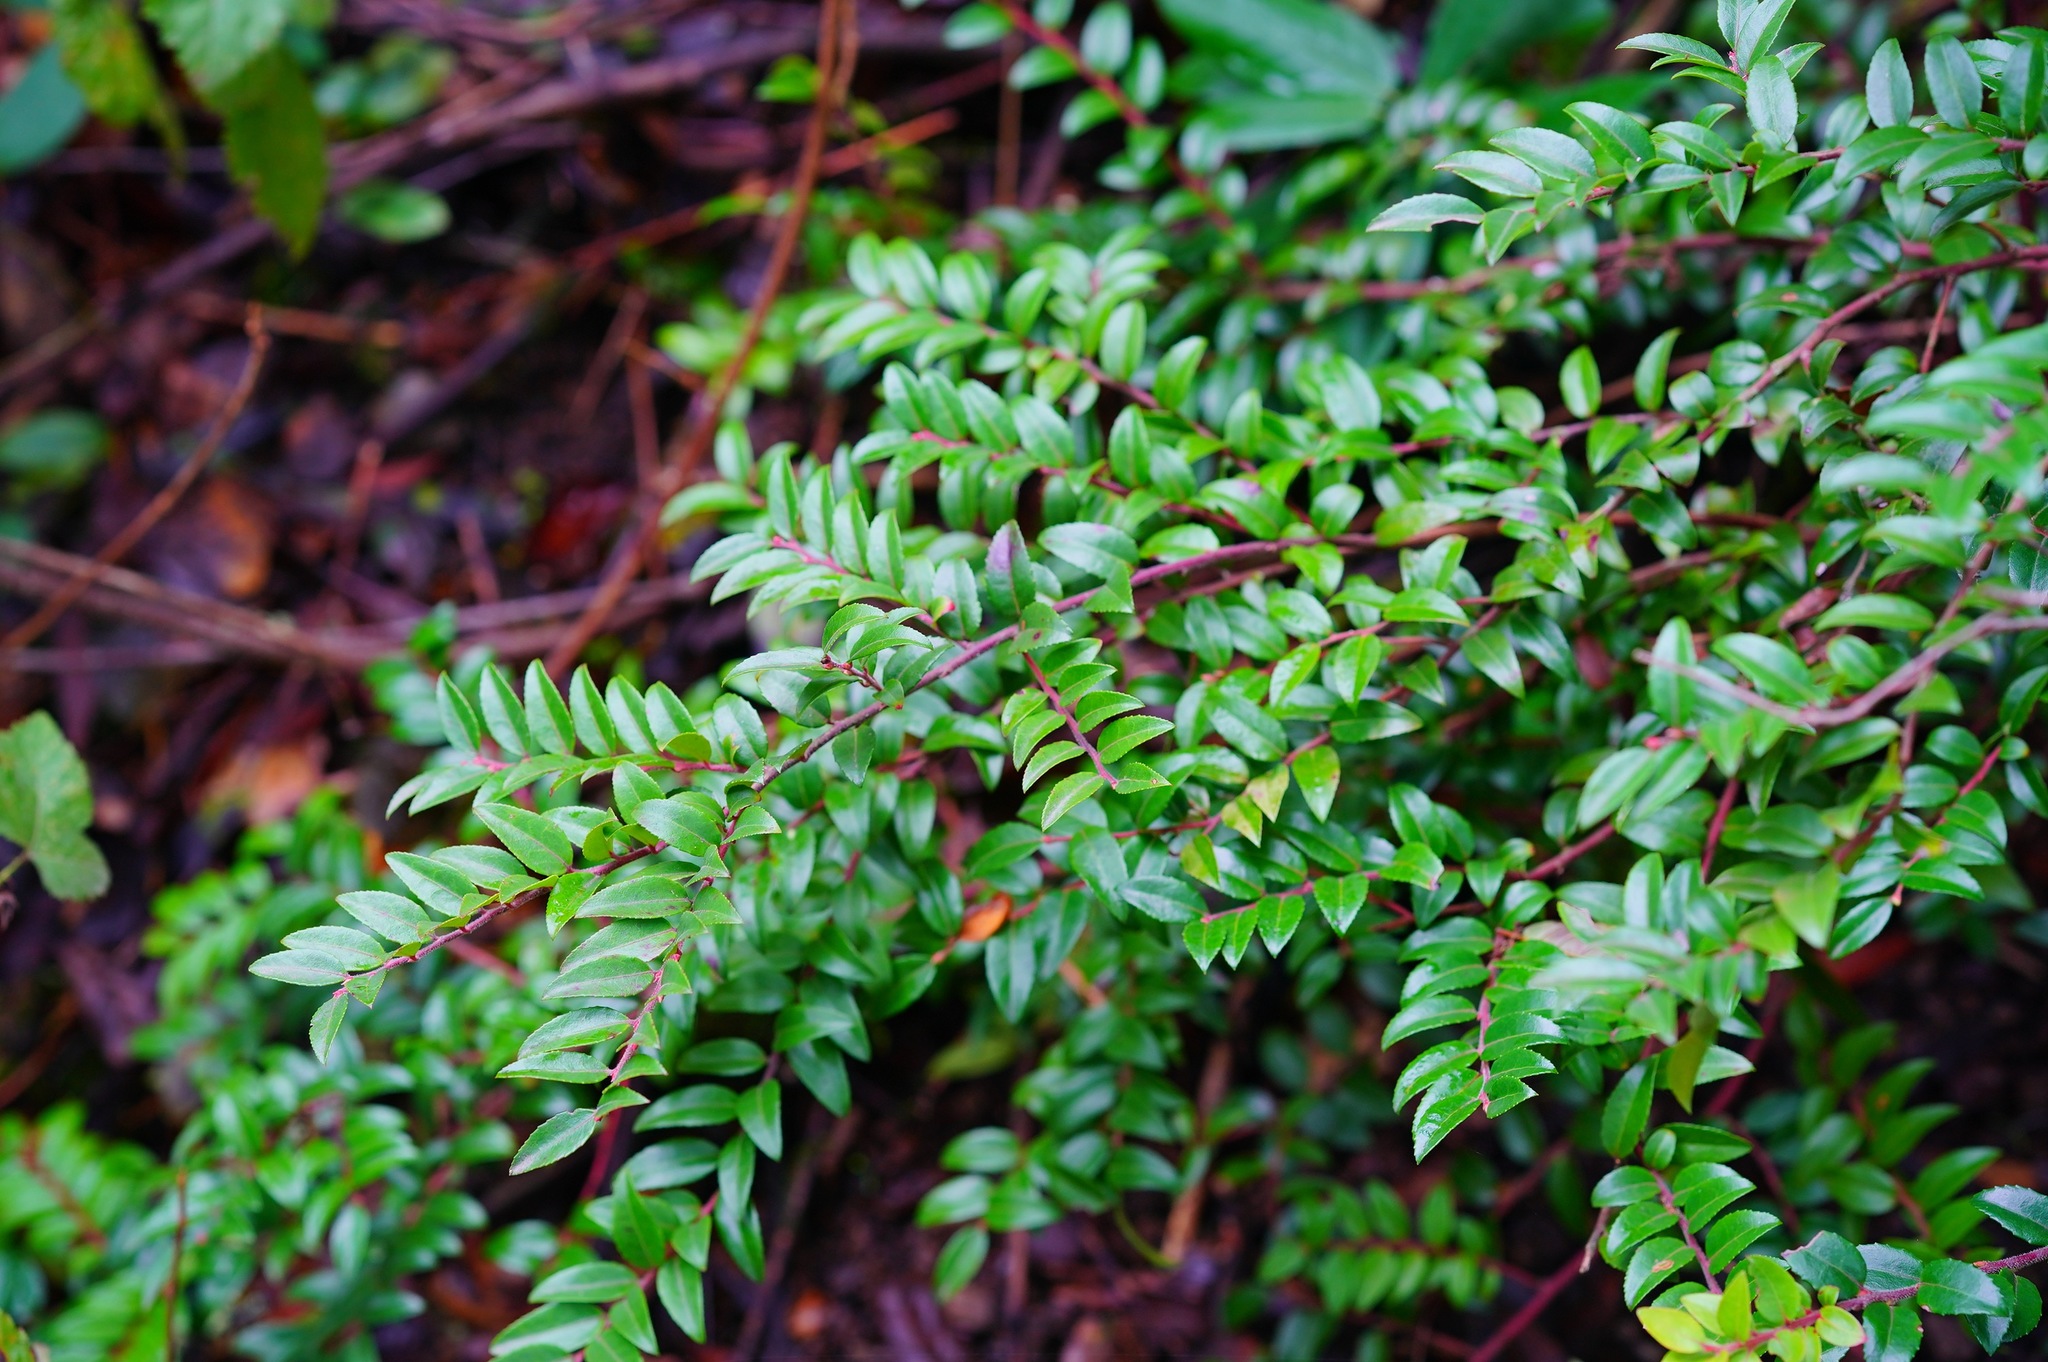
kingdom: Plantae
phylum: Tracheophyta
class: Magnoliopsida
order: Ericales
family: Ericaceae
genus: Vaccinium
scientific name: Vaccinium ovatum
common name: California-huckleberry
